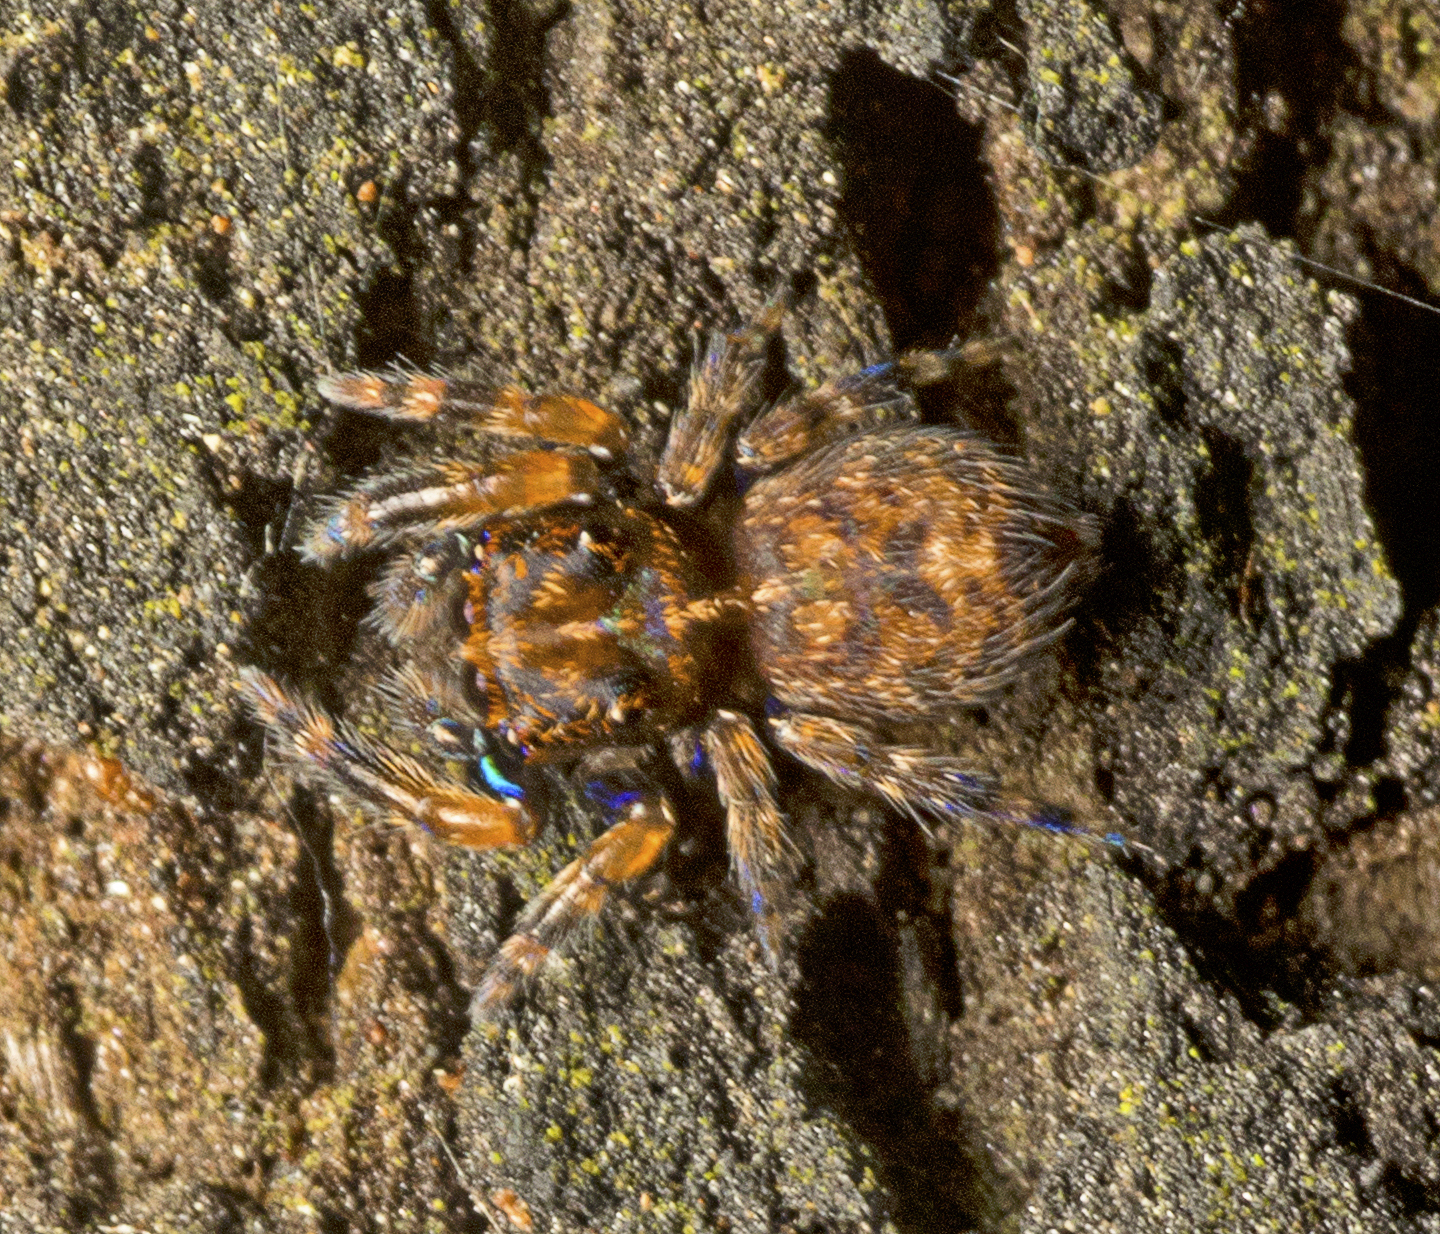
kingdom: Animalia
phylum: Arthropoda
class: Arachnida
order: Araneae
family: Salticidae
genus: Papuaneon
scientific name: Papuaneon eungella
